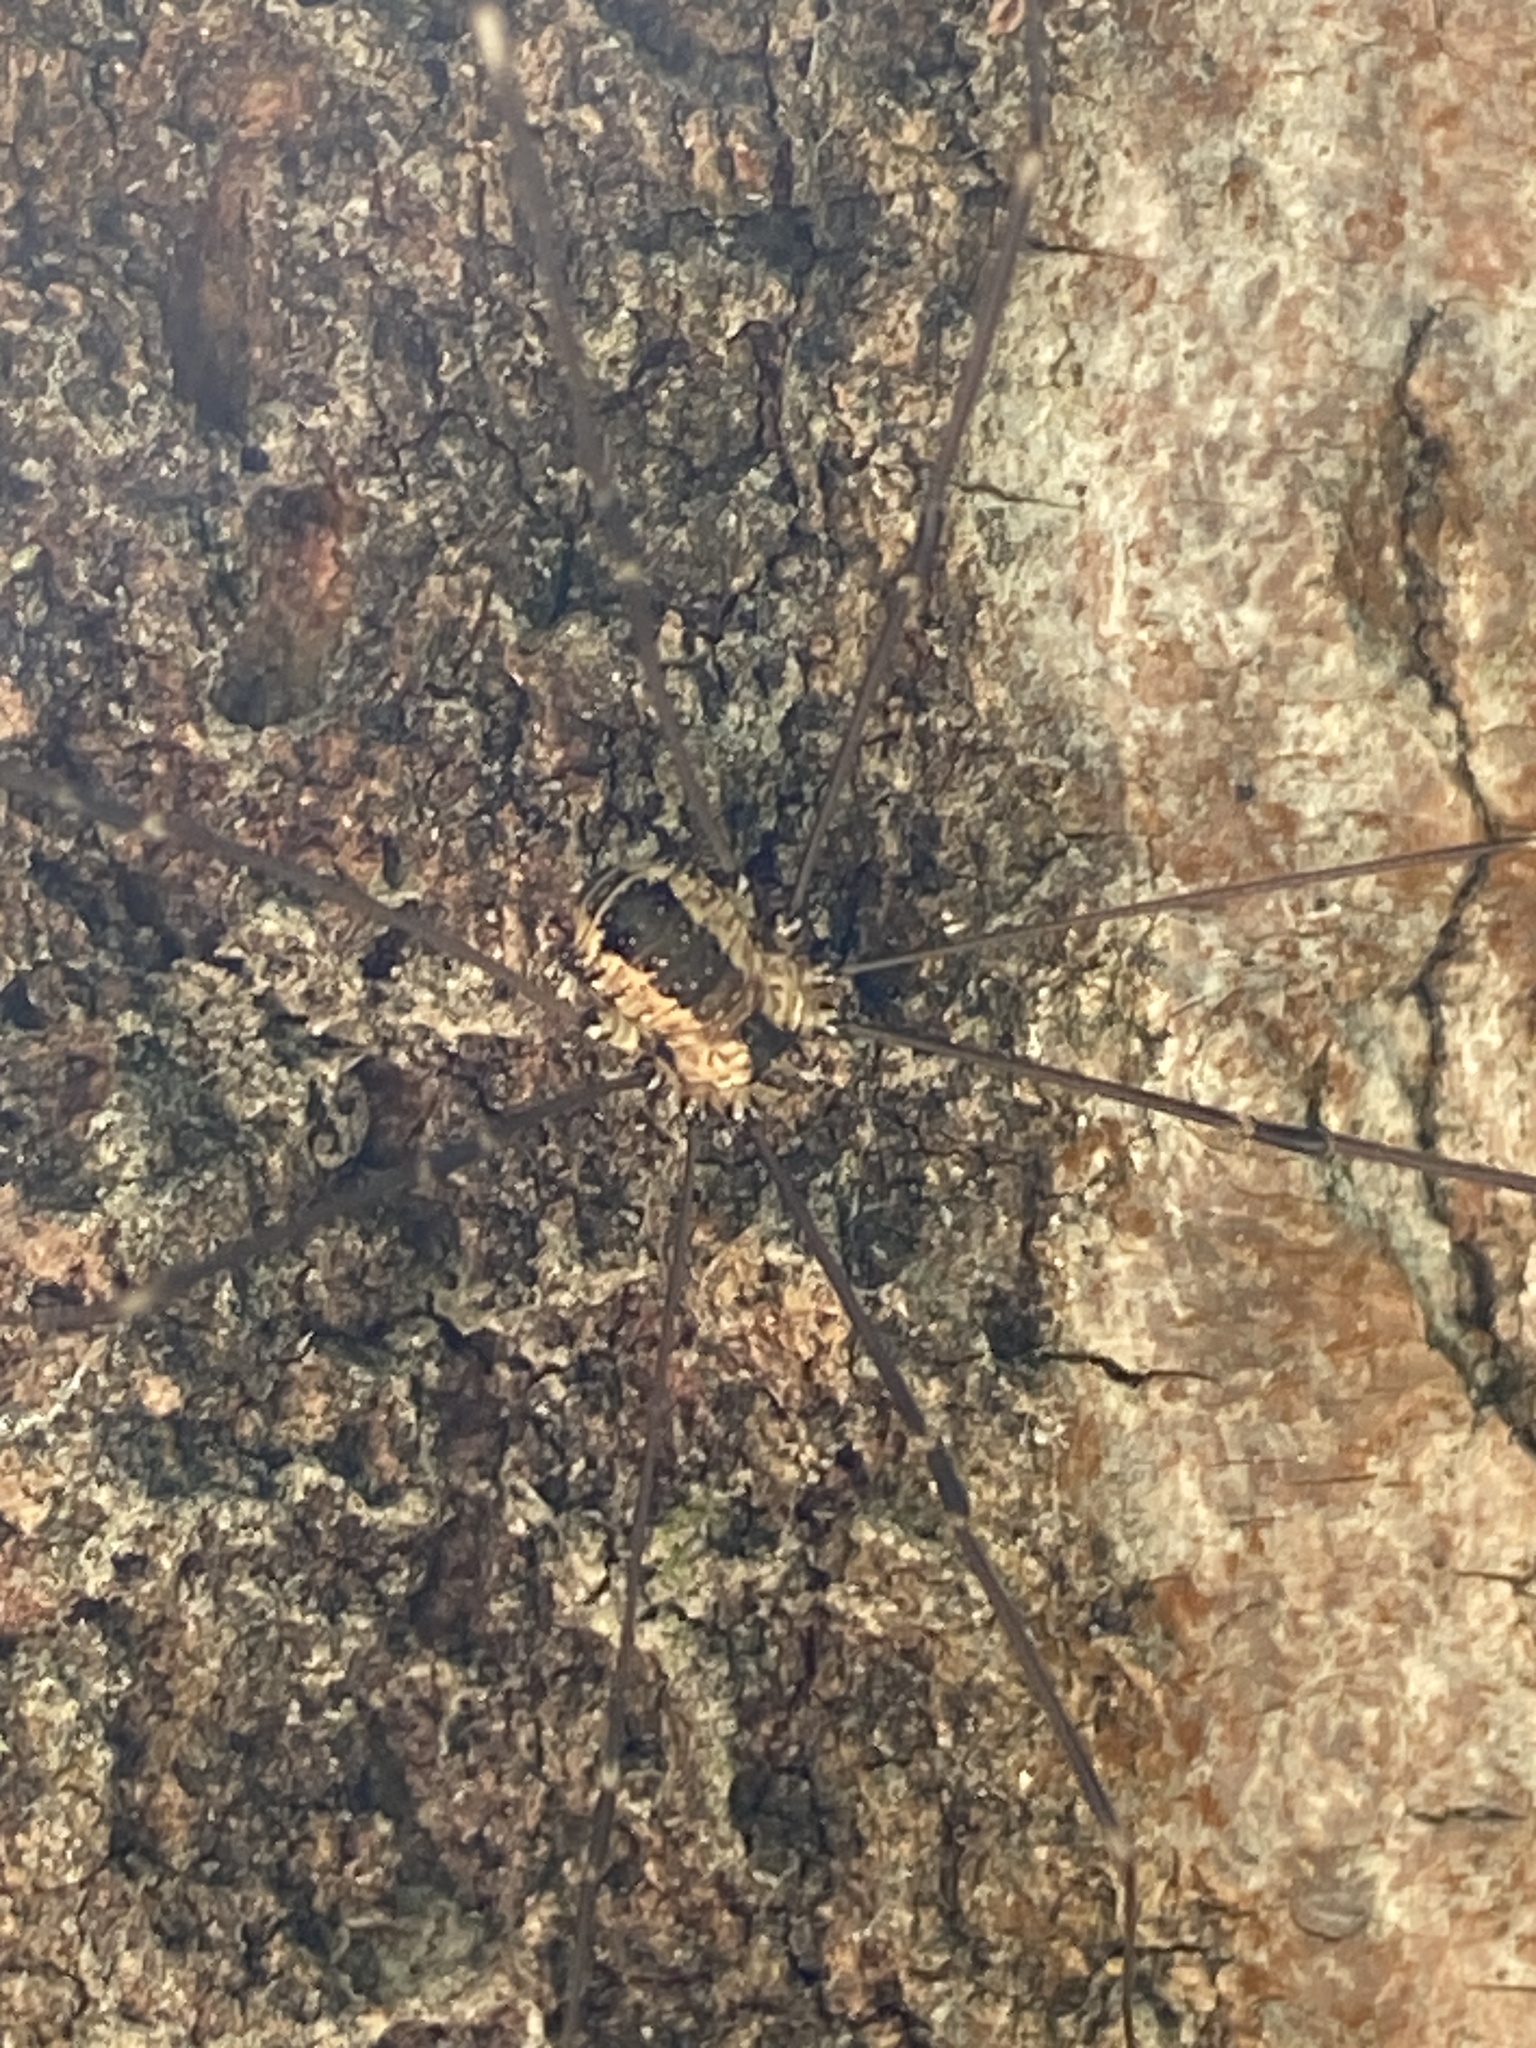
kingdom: Animalia
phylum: Arthropoda
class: Arachnida
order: Opiliones
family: Sclerosomatidae
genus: Leiobunum
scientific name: Leiobunum rotundum
